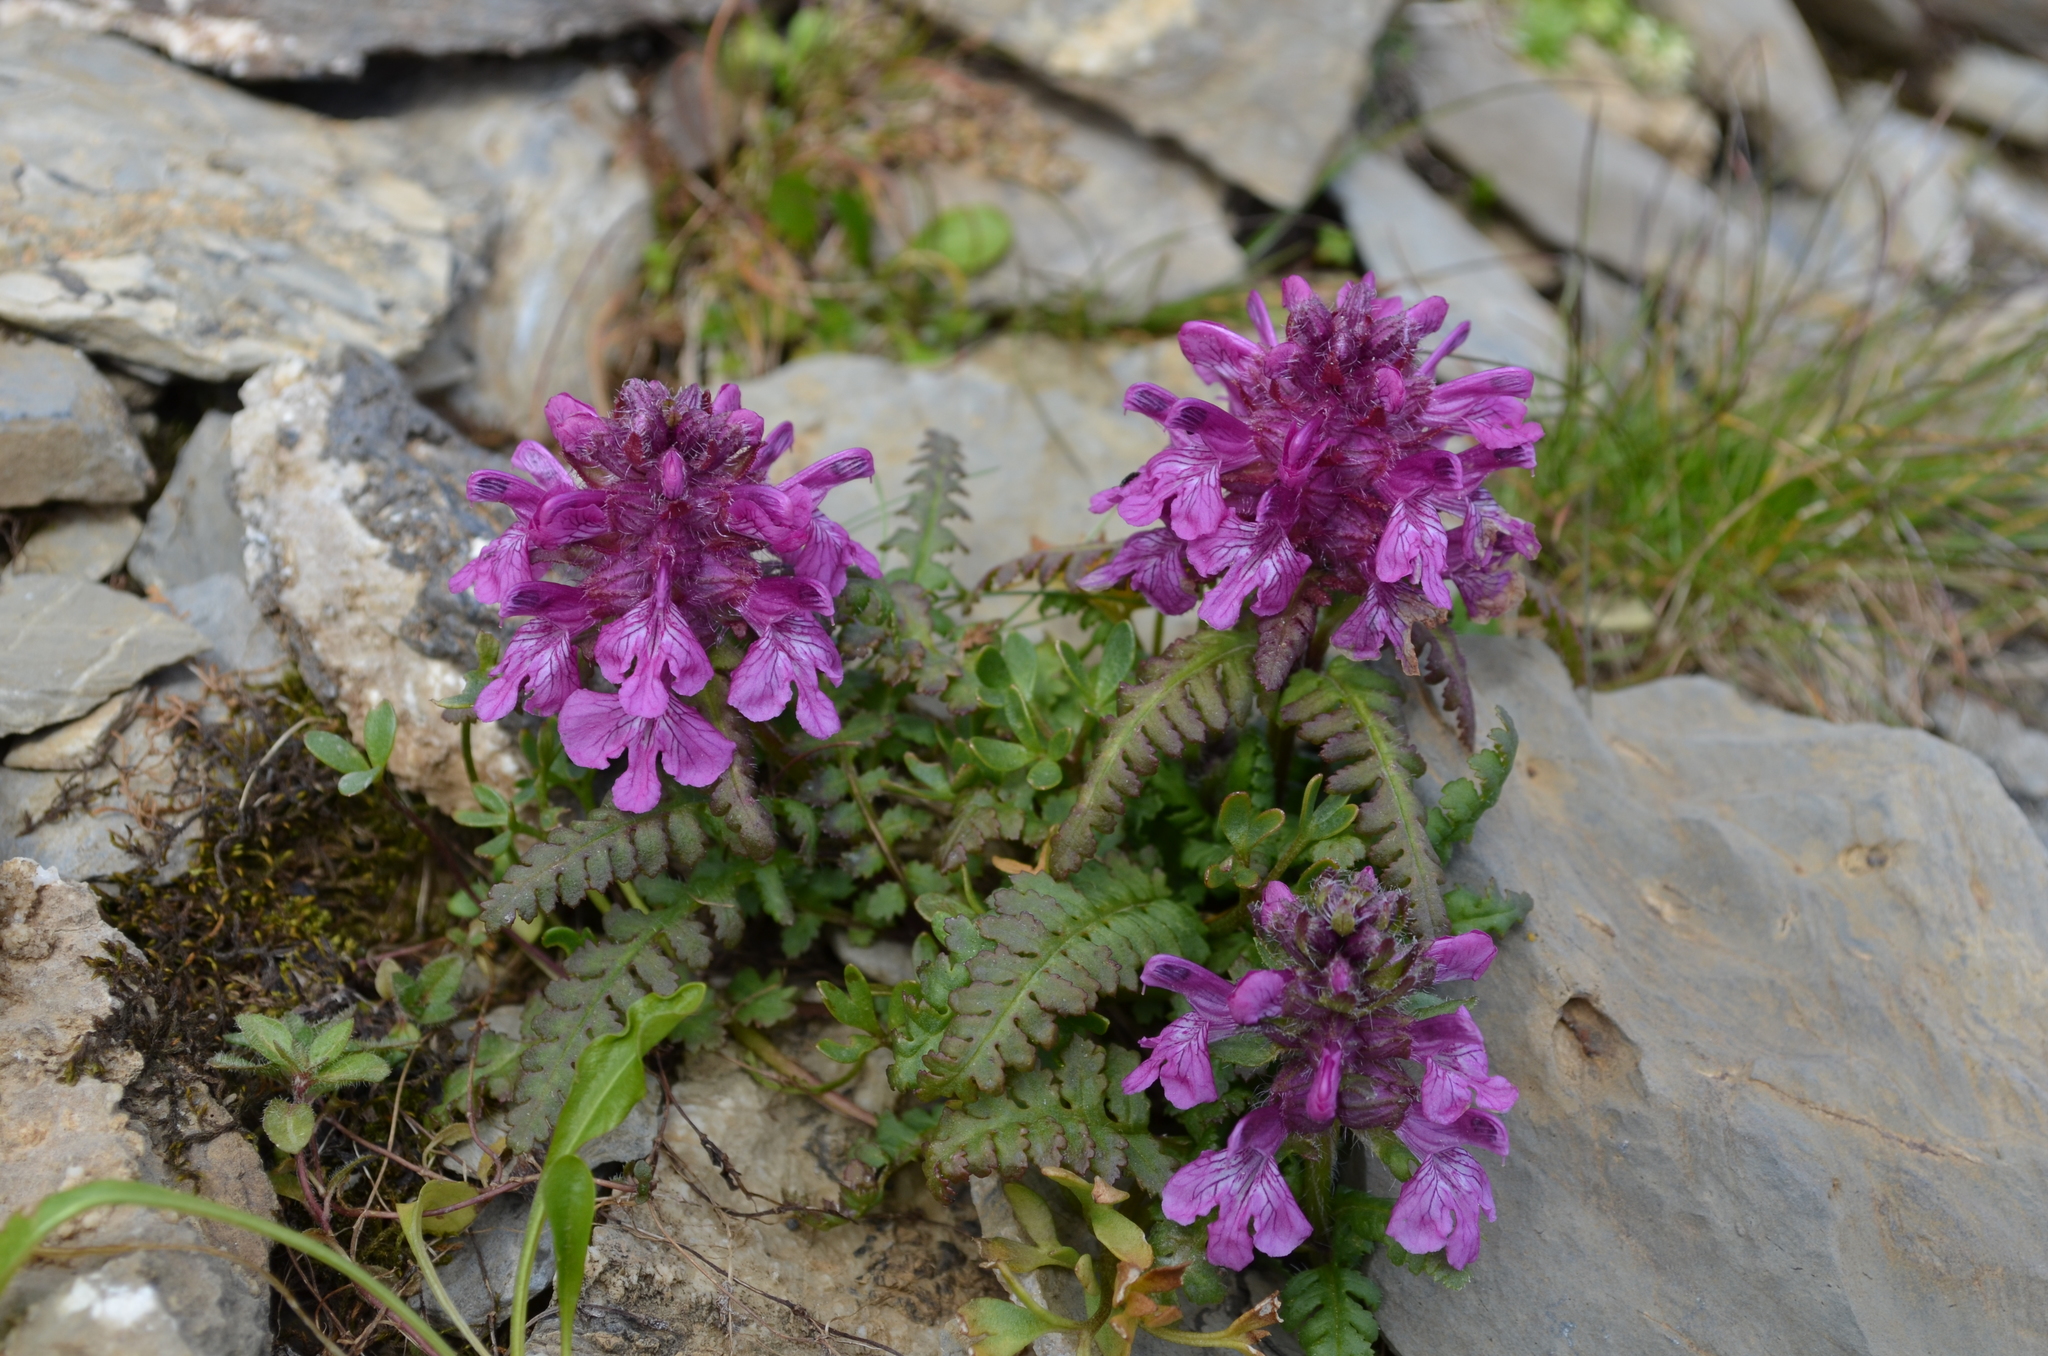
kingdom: Plantae
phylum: Tracheophyta
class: Magnoliopsida
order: Lamiales
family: Orobanchaceae
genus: Pedicularis
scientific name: Pedicularis verticillata
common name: Whorled lousewort
